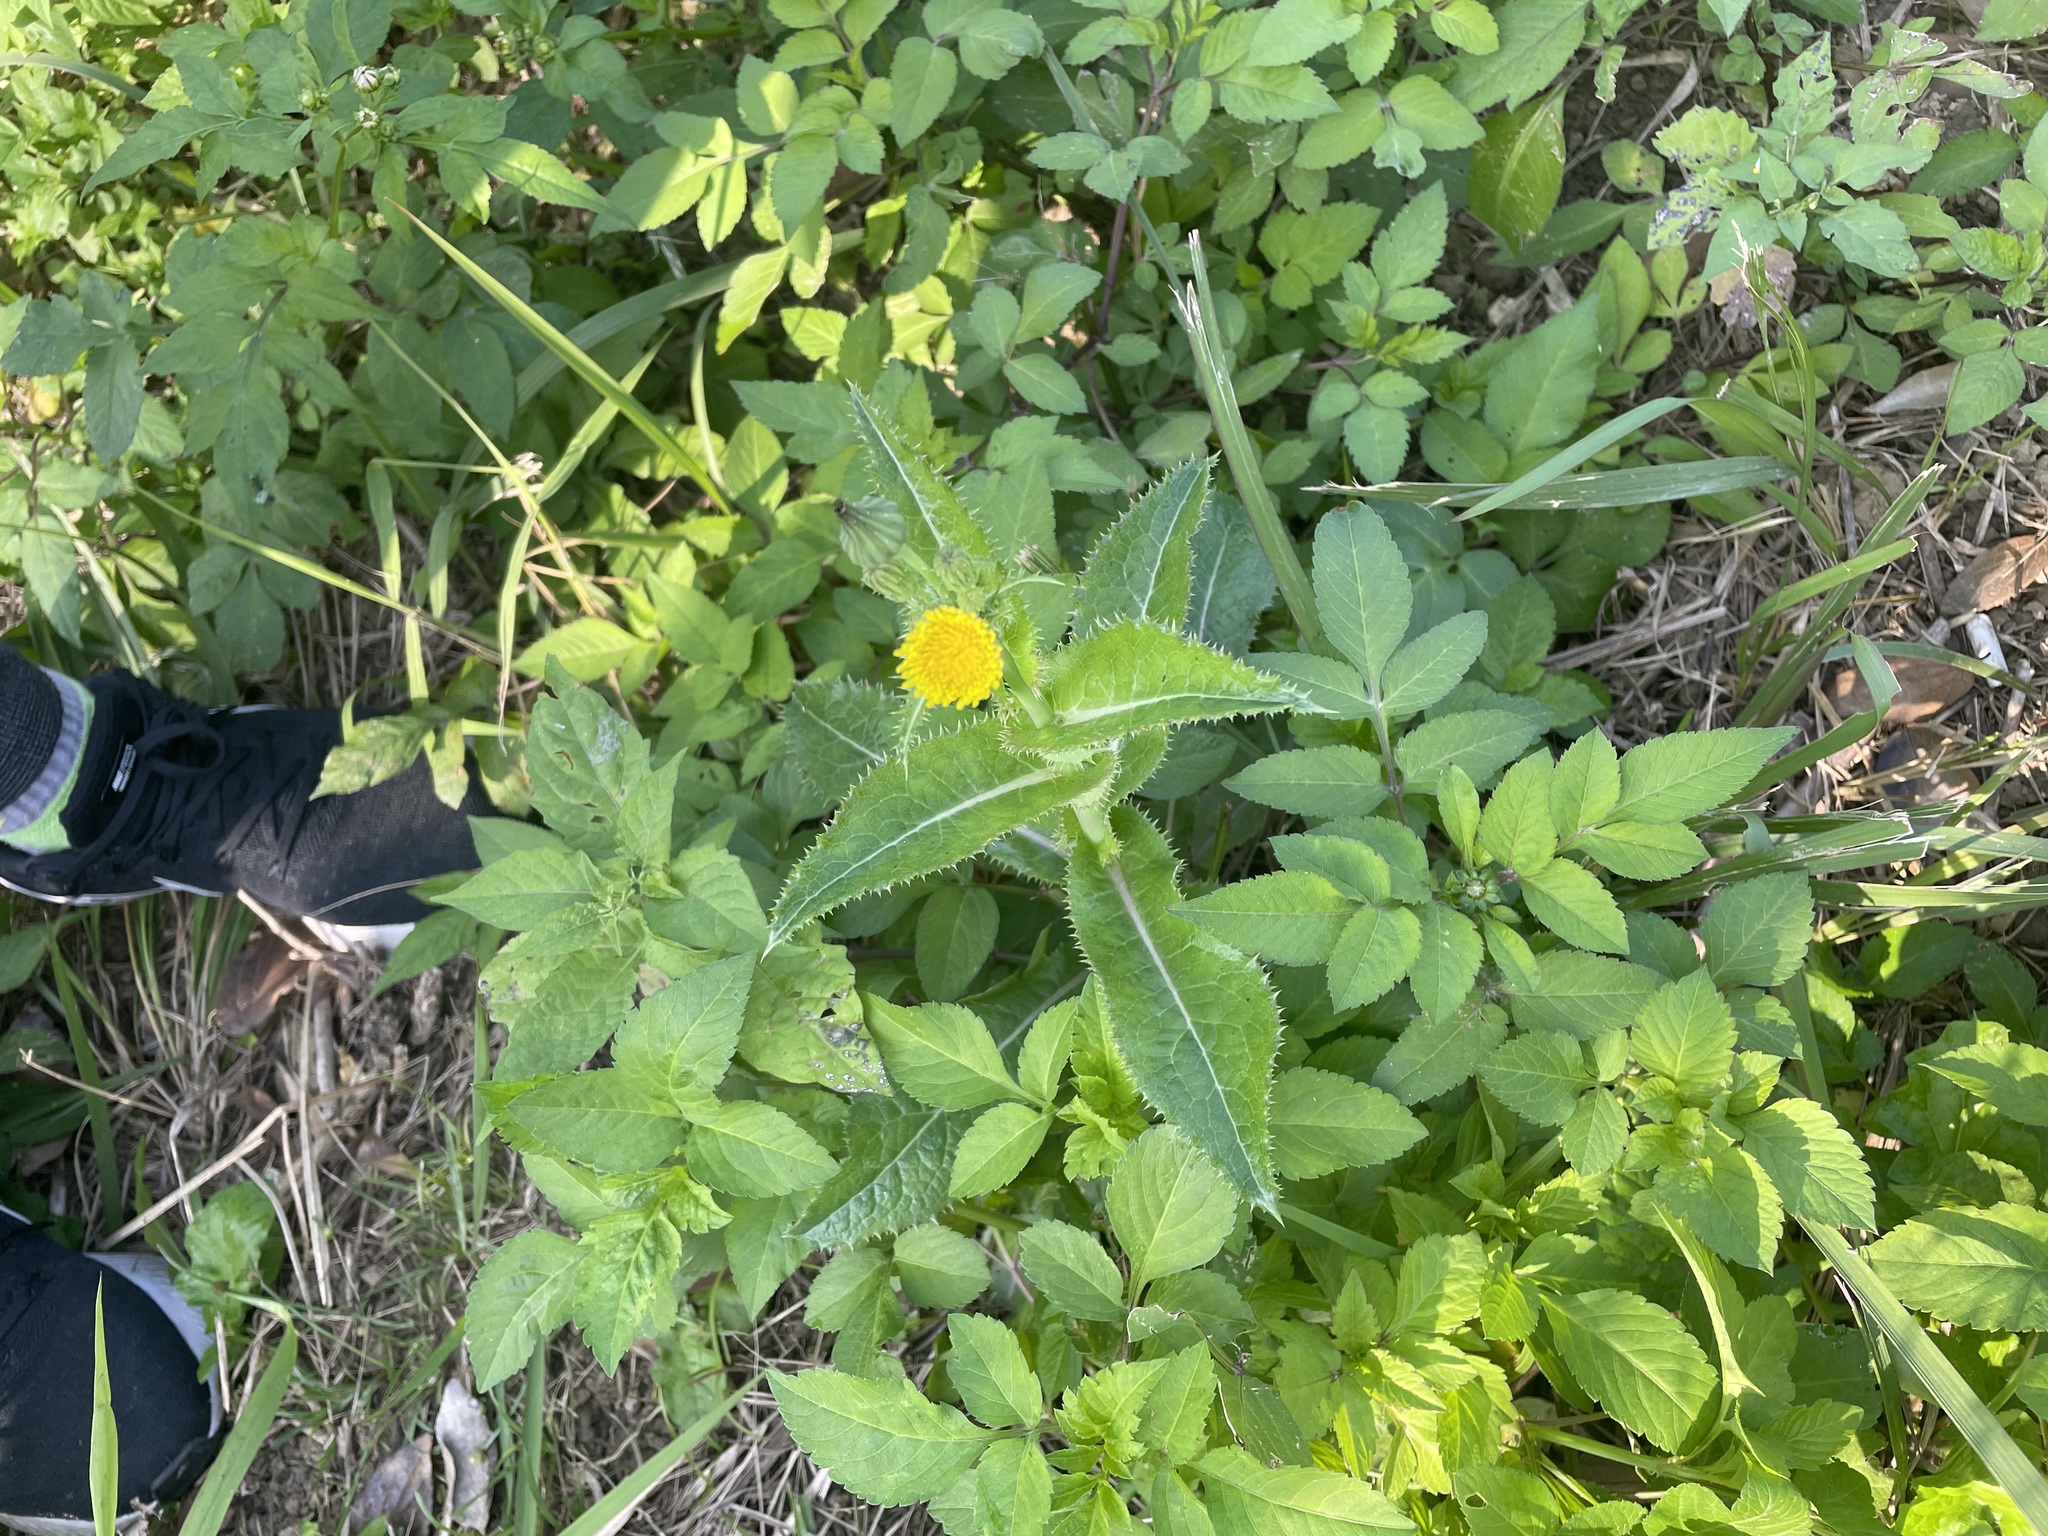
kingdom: Plantae
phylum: Tracheophyta
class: Magnoliopsida
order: Asterales
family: Asteraceae
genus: Sonchus
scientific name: Sonchus asper
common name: Prickly sow-thistle
